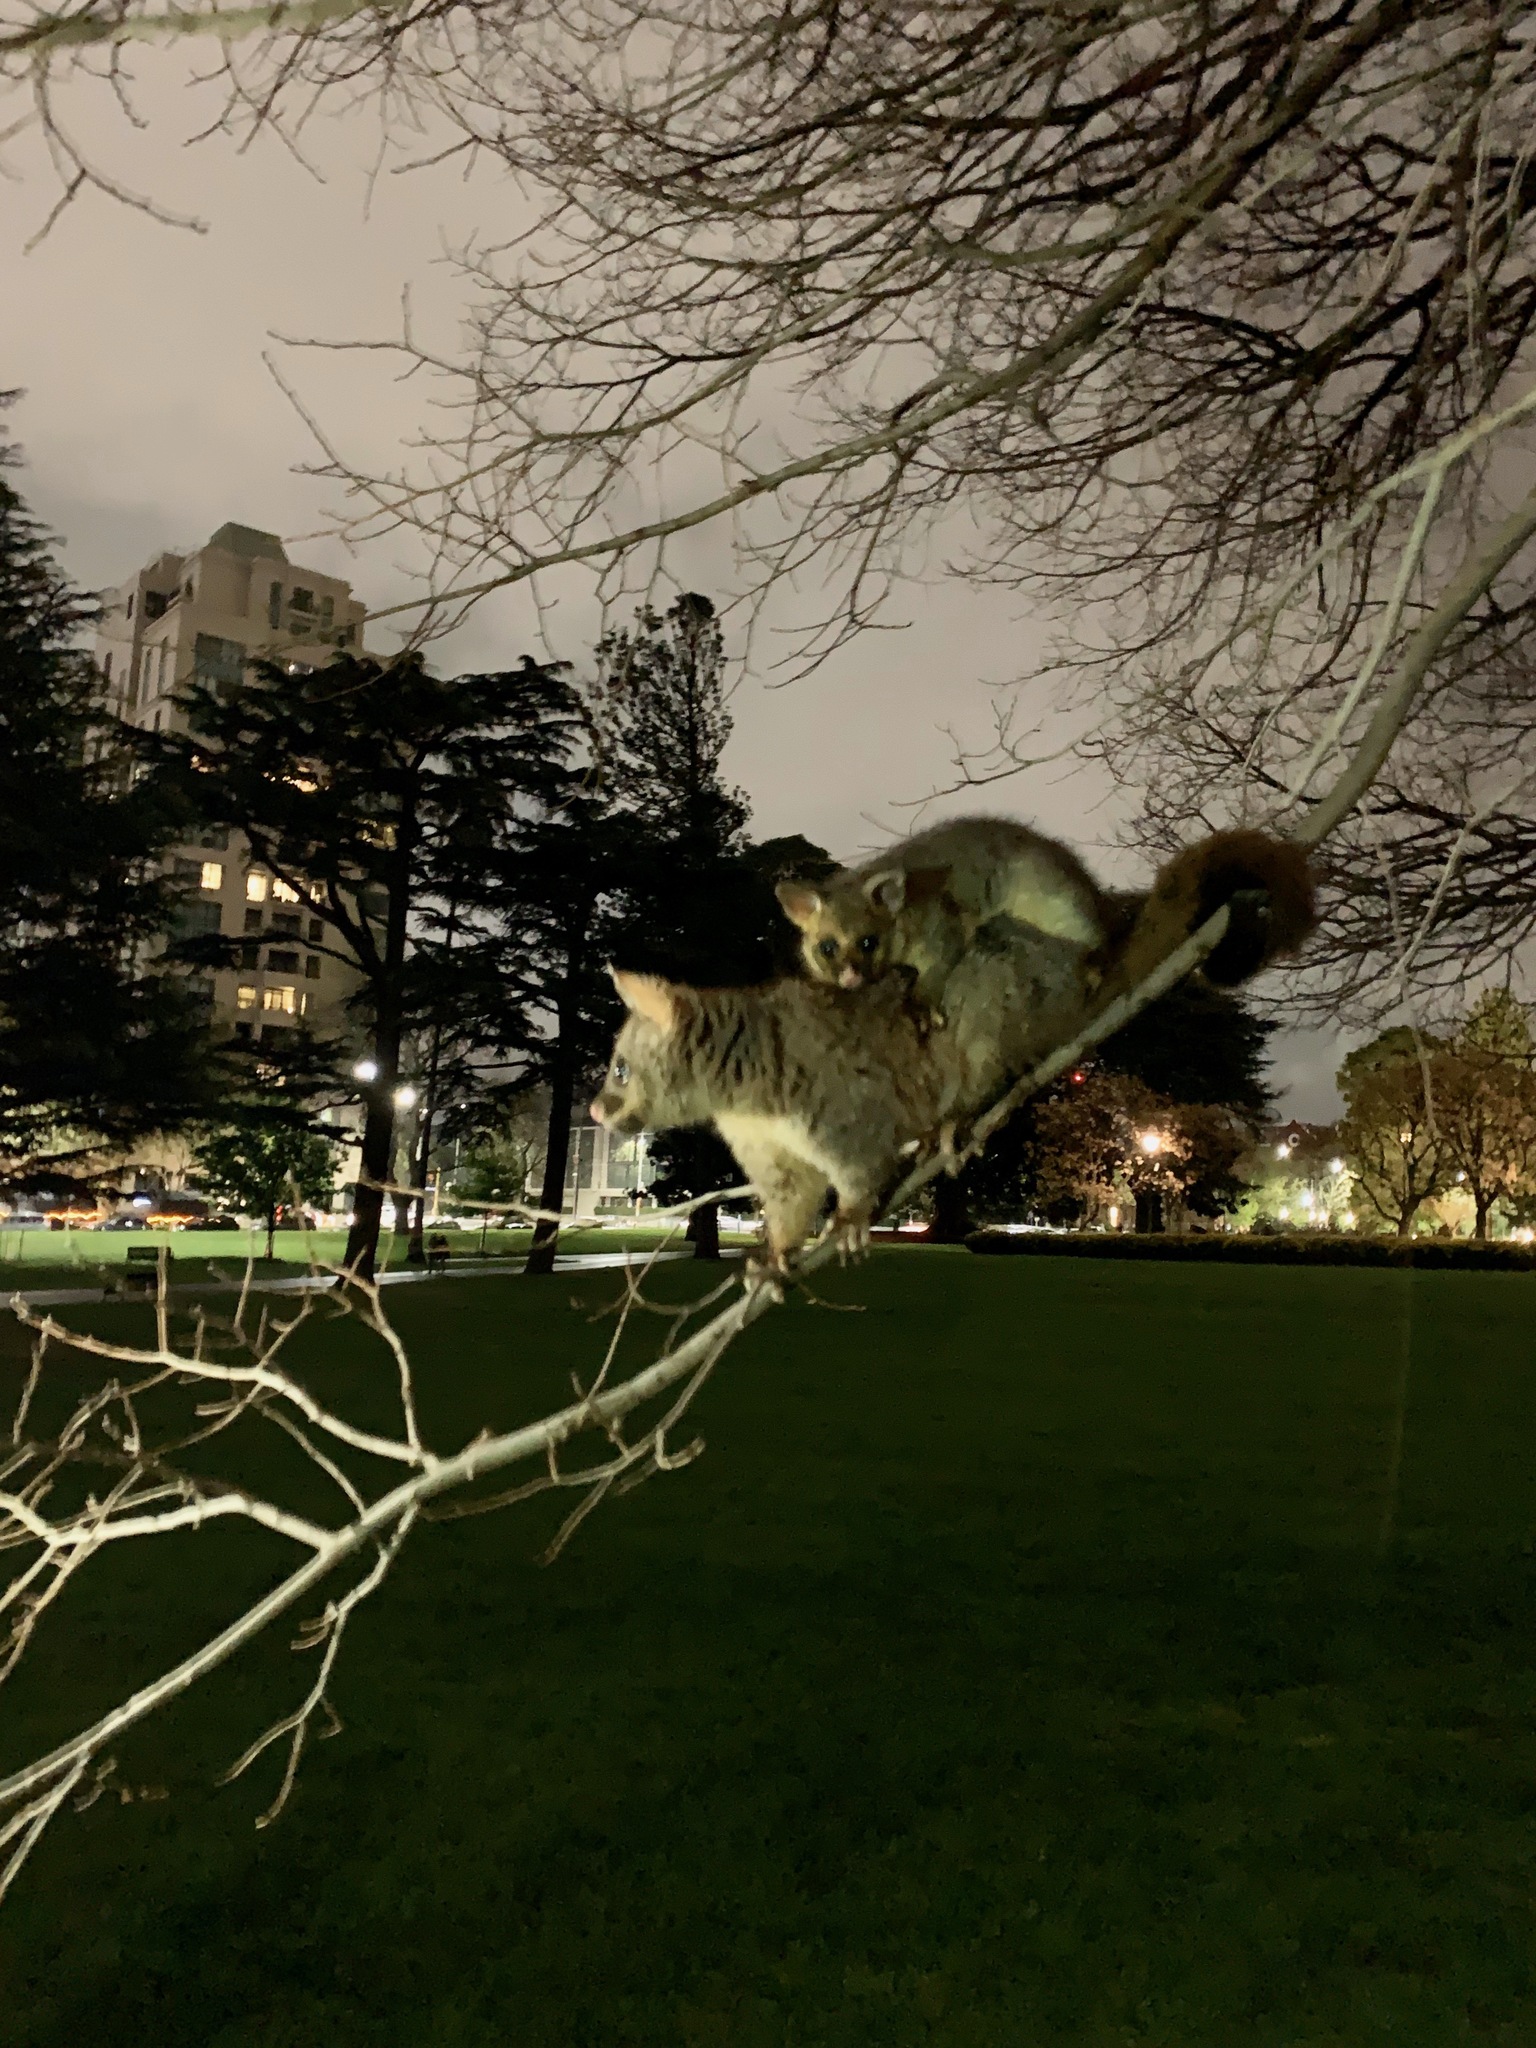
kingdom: Animalia
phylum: Chordata
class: Mammalia
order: Diprotodontia
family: Phalangeridae
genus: Trichosurus
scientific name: Trichosurus vulpecula
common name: Common brushtail
